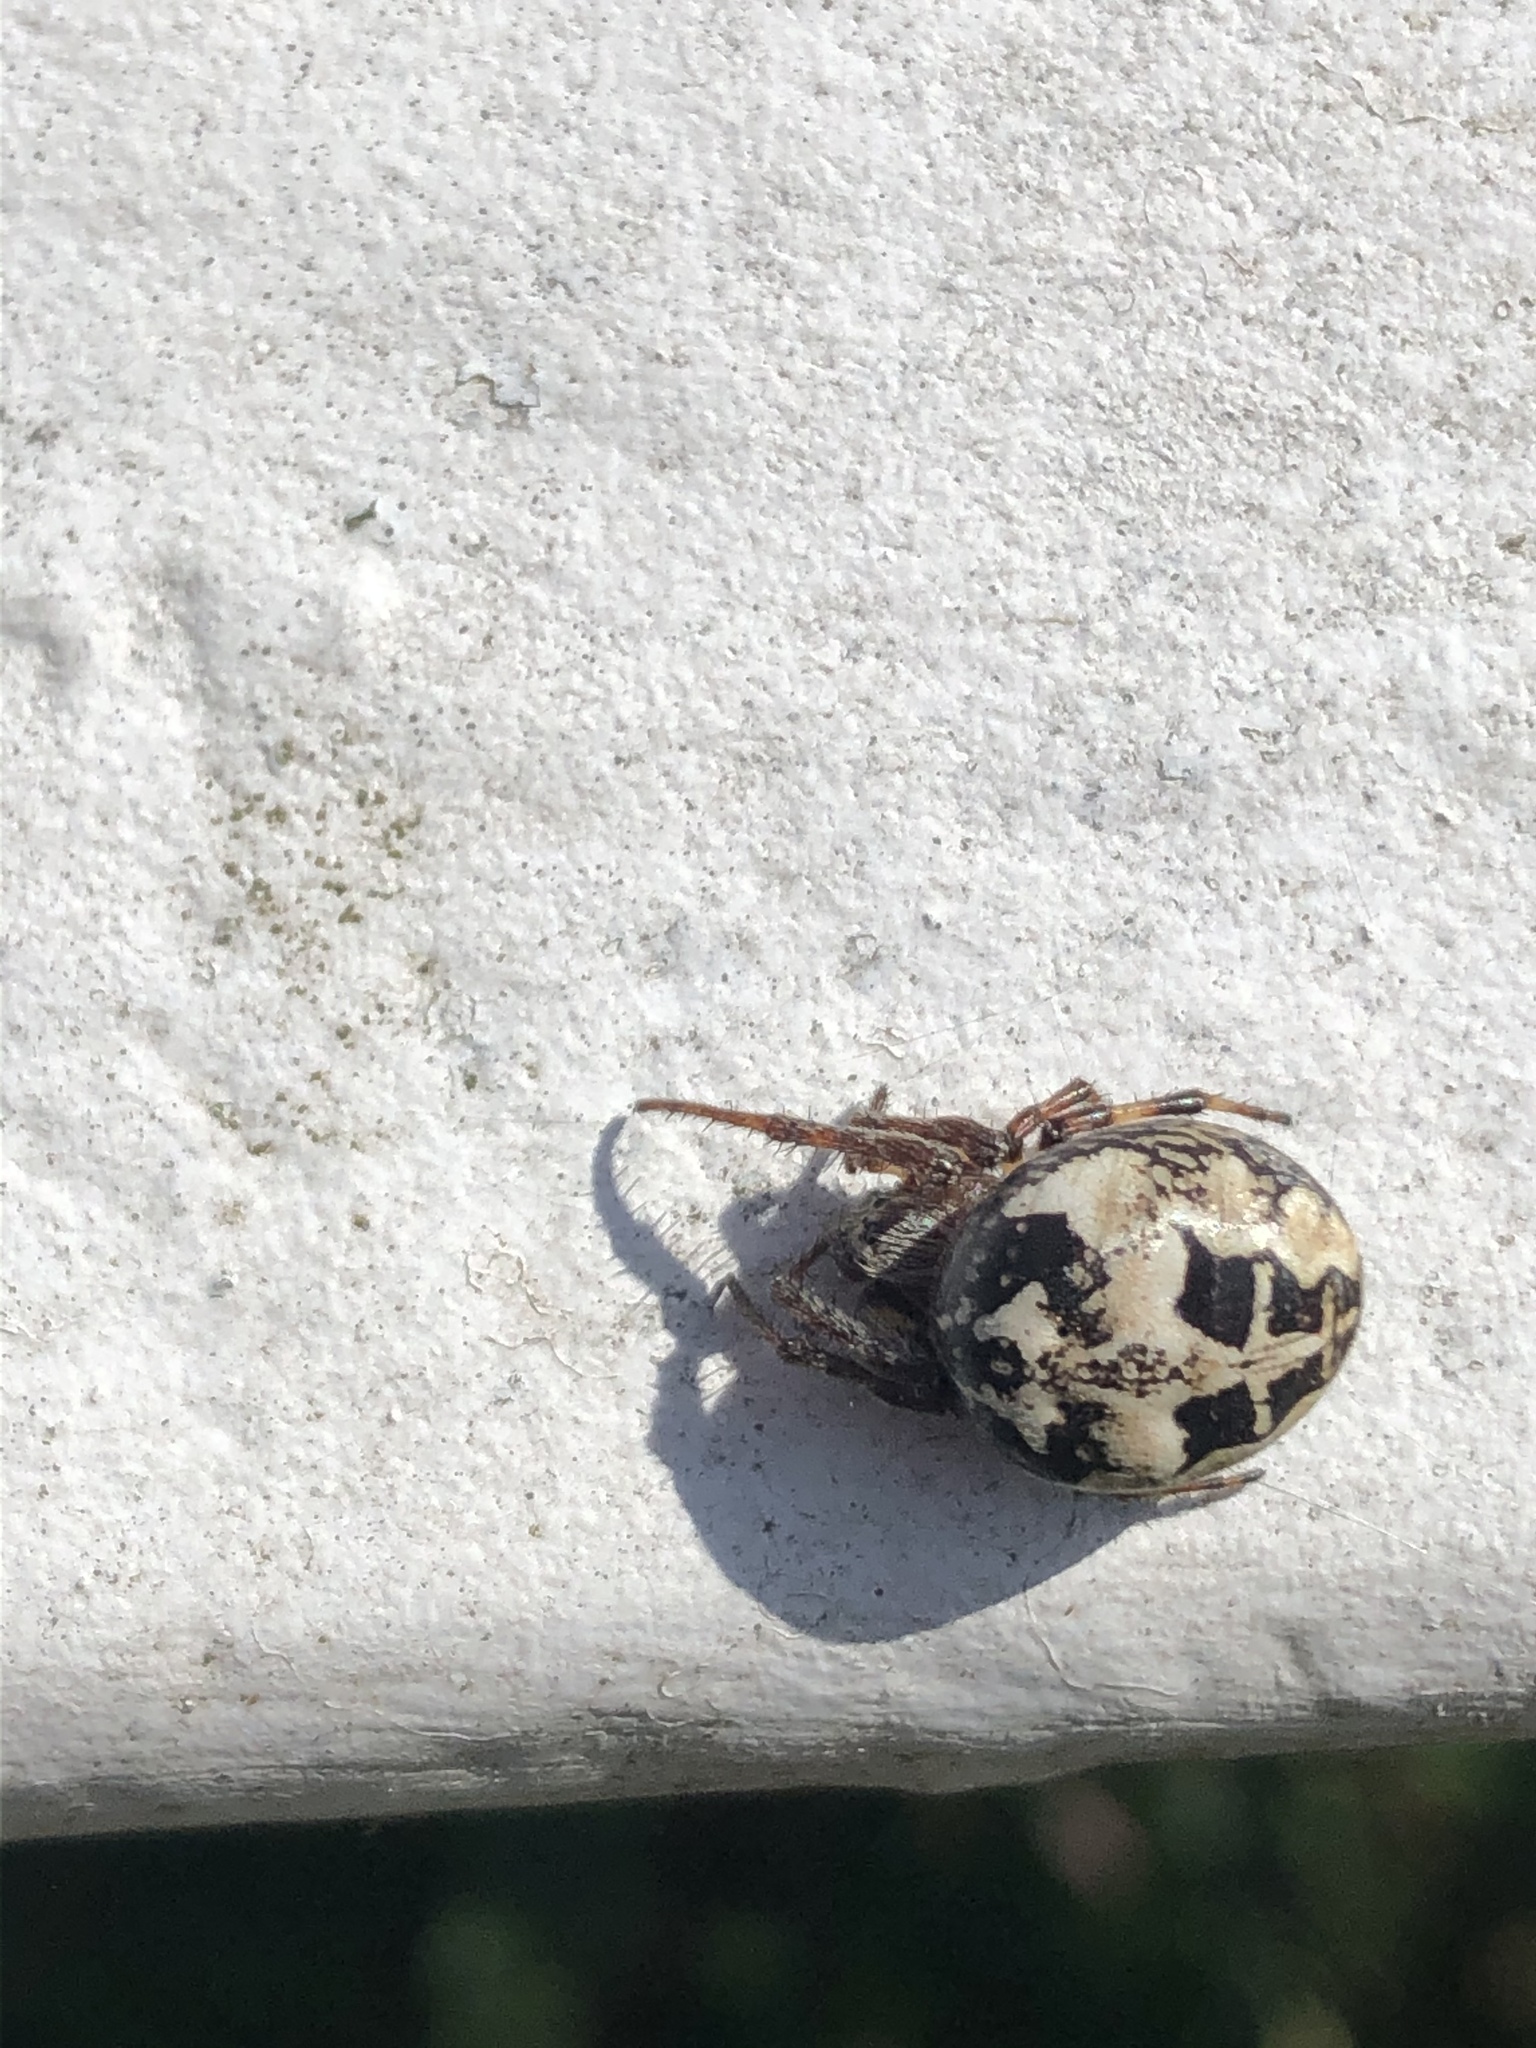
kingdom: Animalia
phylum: Arthropoda
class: Arachnida
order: Araneae
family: Araneidae
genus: Larinioides
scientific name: Larinioides cornutus
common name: Furrow orbweaver
